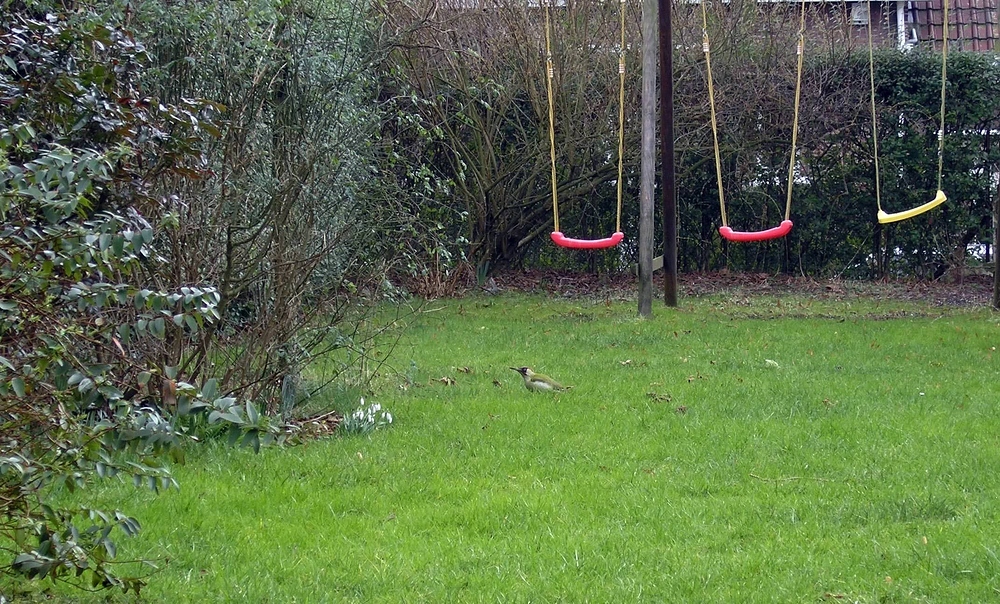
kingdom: Animalia
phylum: Chordata
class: Aves
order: Piciformes
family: Picidae
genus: Picus
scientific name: Picus viridis
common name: European green woodpecker
